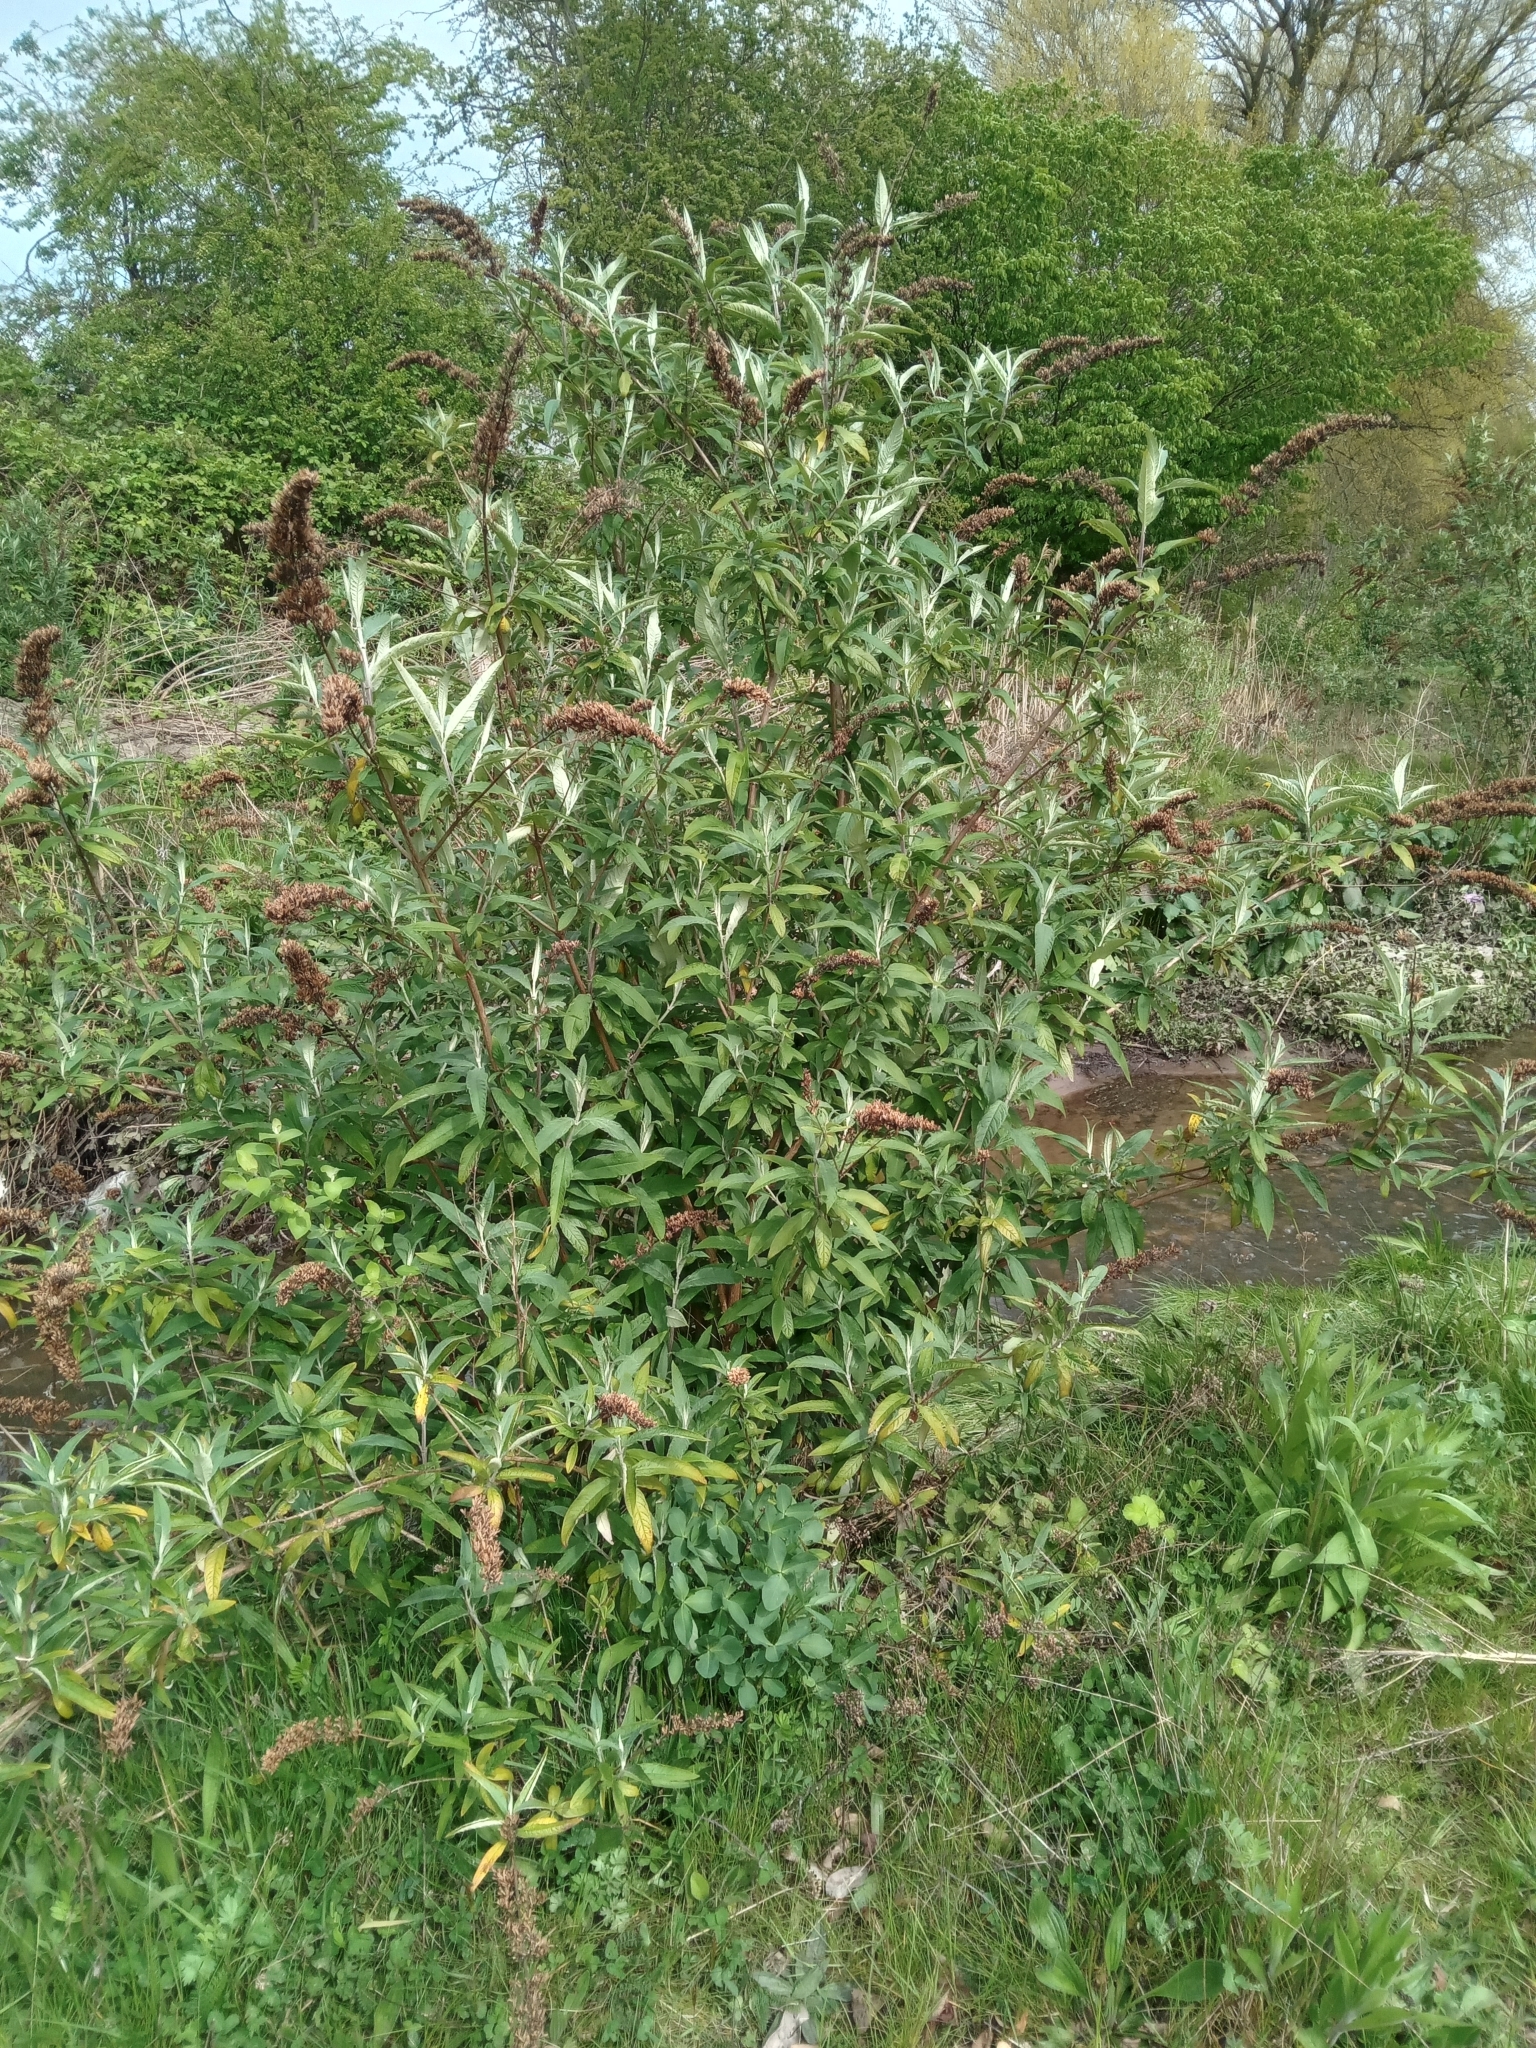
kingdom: Plantae
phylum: Tracheophyta
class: Magnoliopsida
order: Lamiales
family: Scrophulariaceae
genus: Buddleja
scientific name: Buddleja davidii
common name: Butterfly-bush
